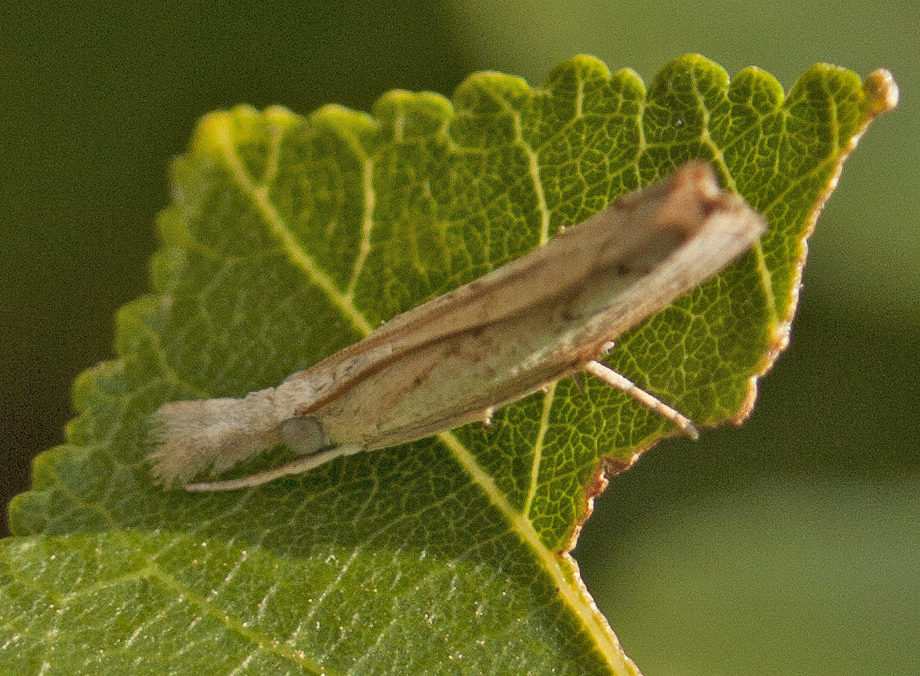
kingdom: Animalia
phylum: Arthropoda
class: Insecta
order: Lepidoptera
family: Crambidae
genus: Culladia
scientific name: Culladia cuneiferellus
